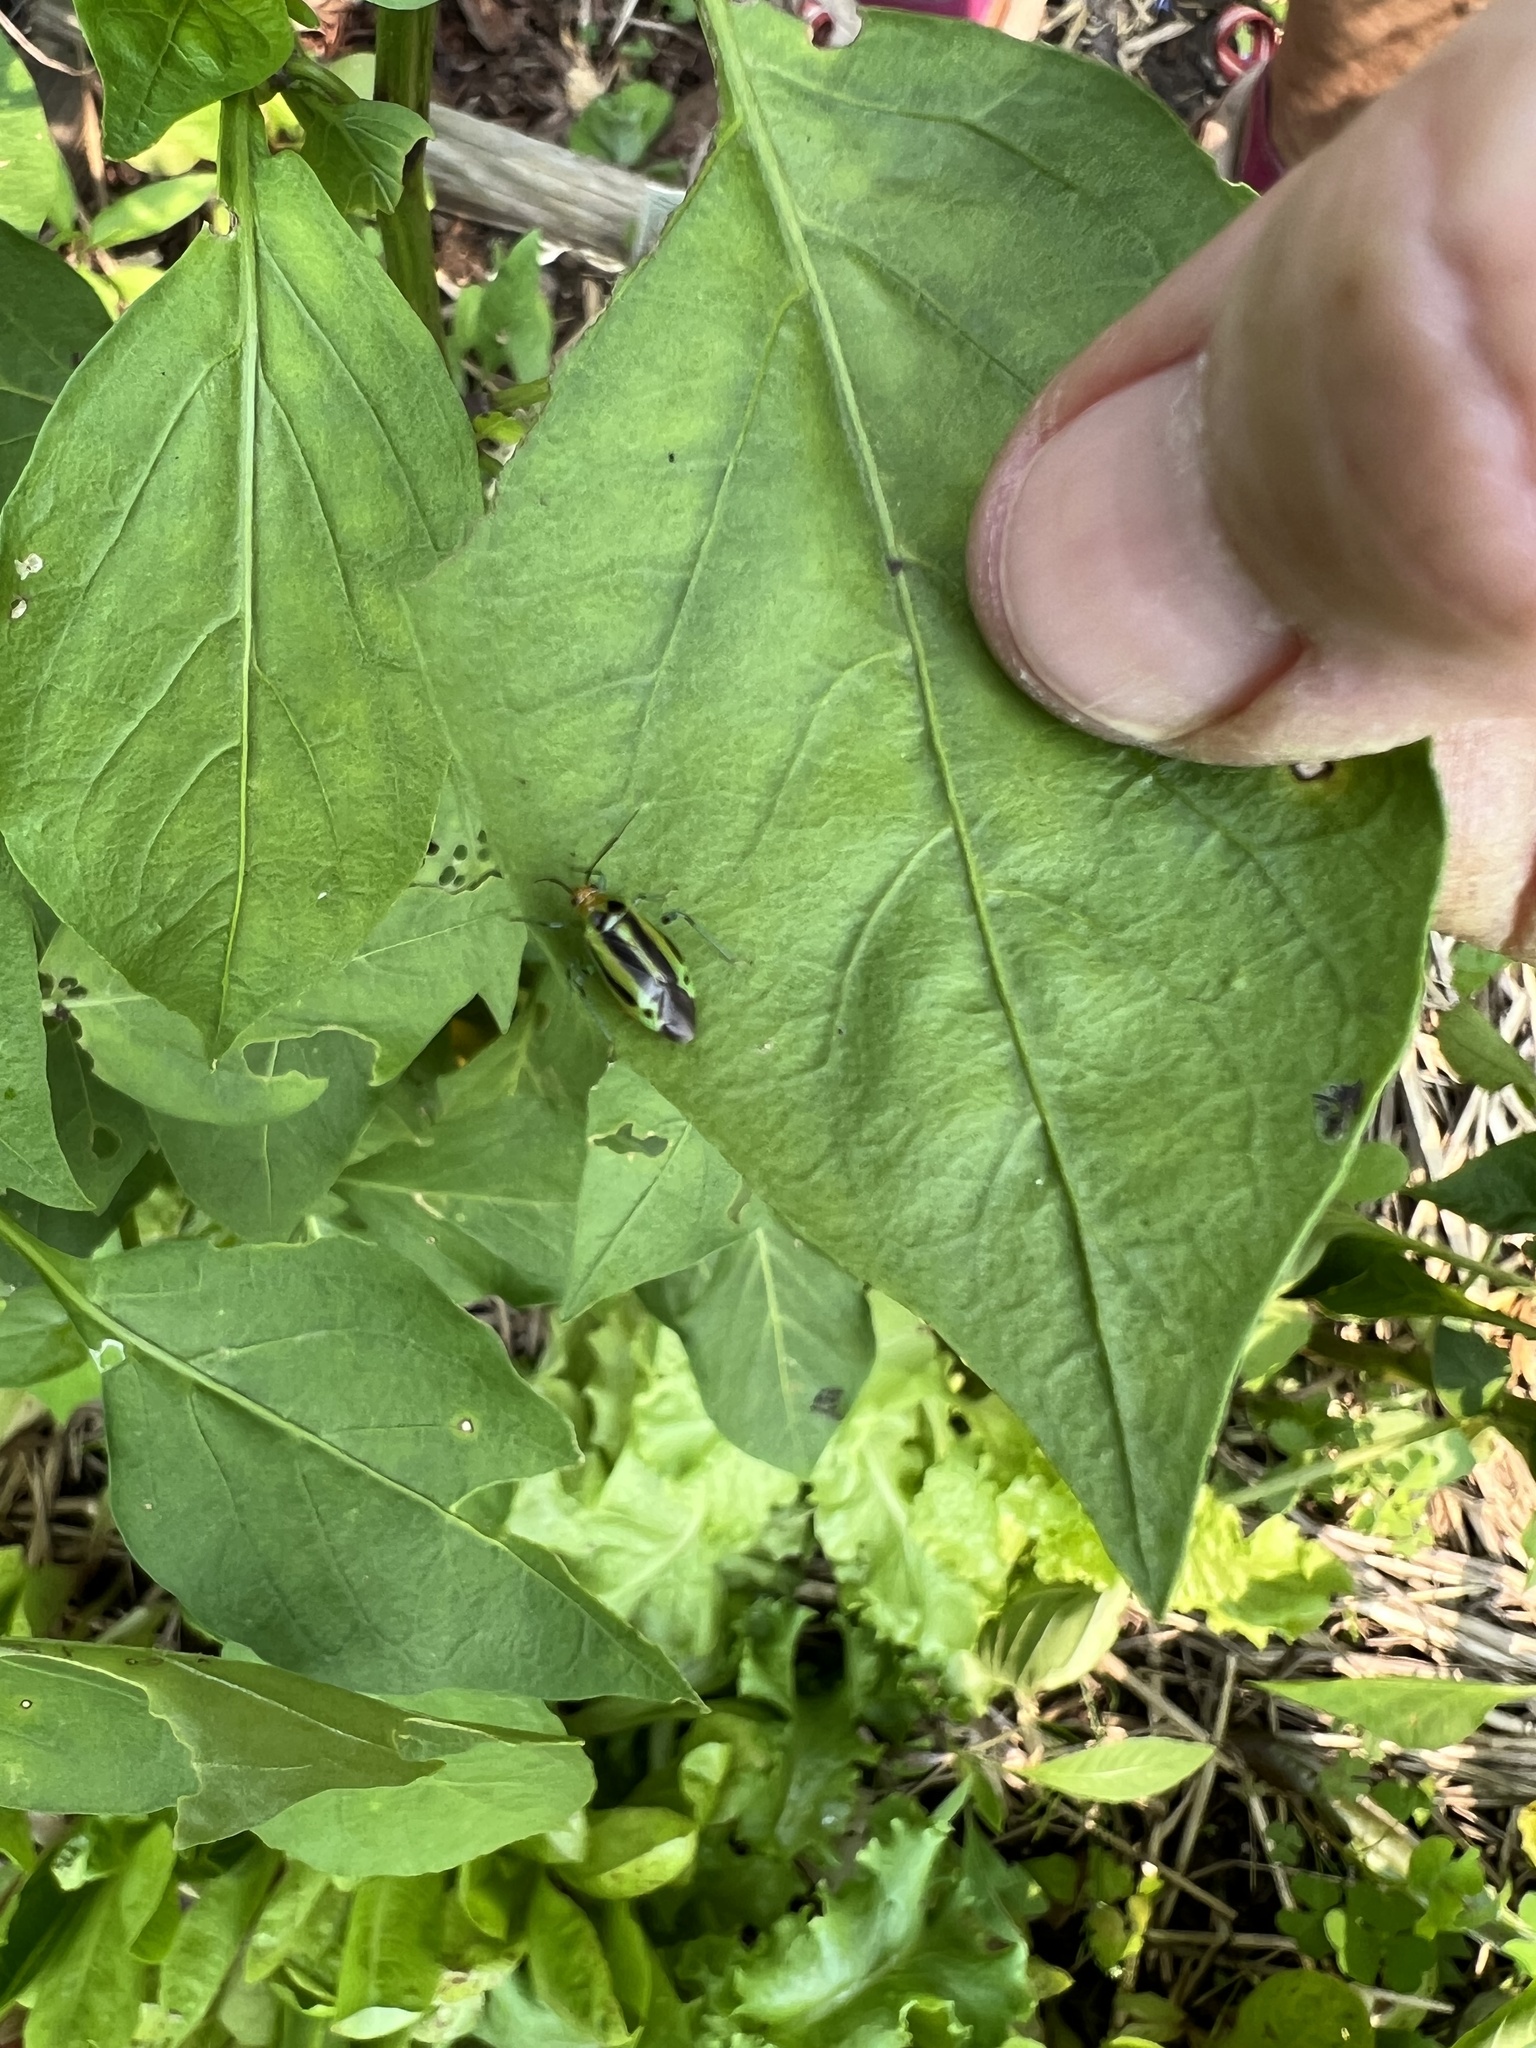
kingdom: Animalia
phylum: Arthropoda
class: Insecta
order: Hemiptera
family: Miridae
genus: Poecilocapsus
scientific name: Poecilocapsus lineatus
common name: Four-lined plant bug
